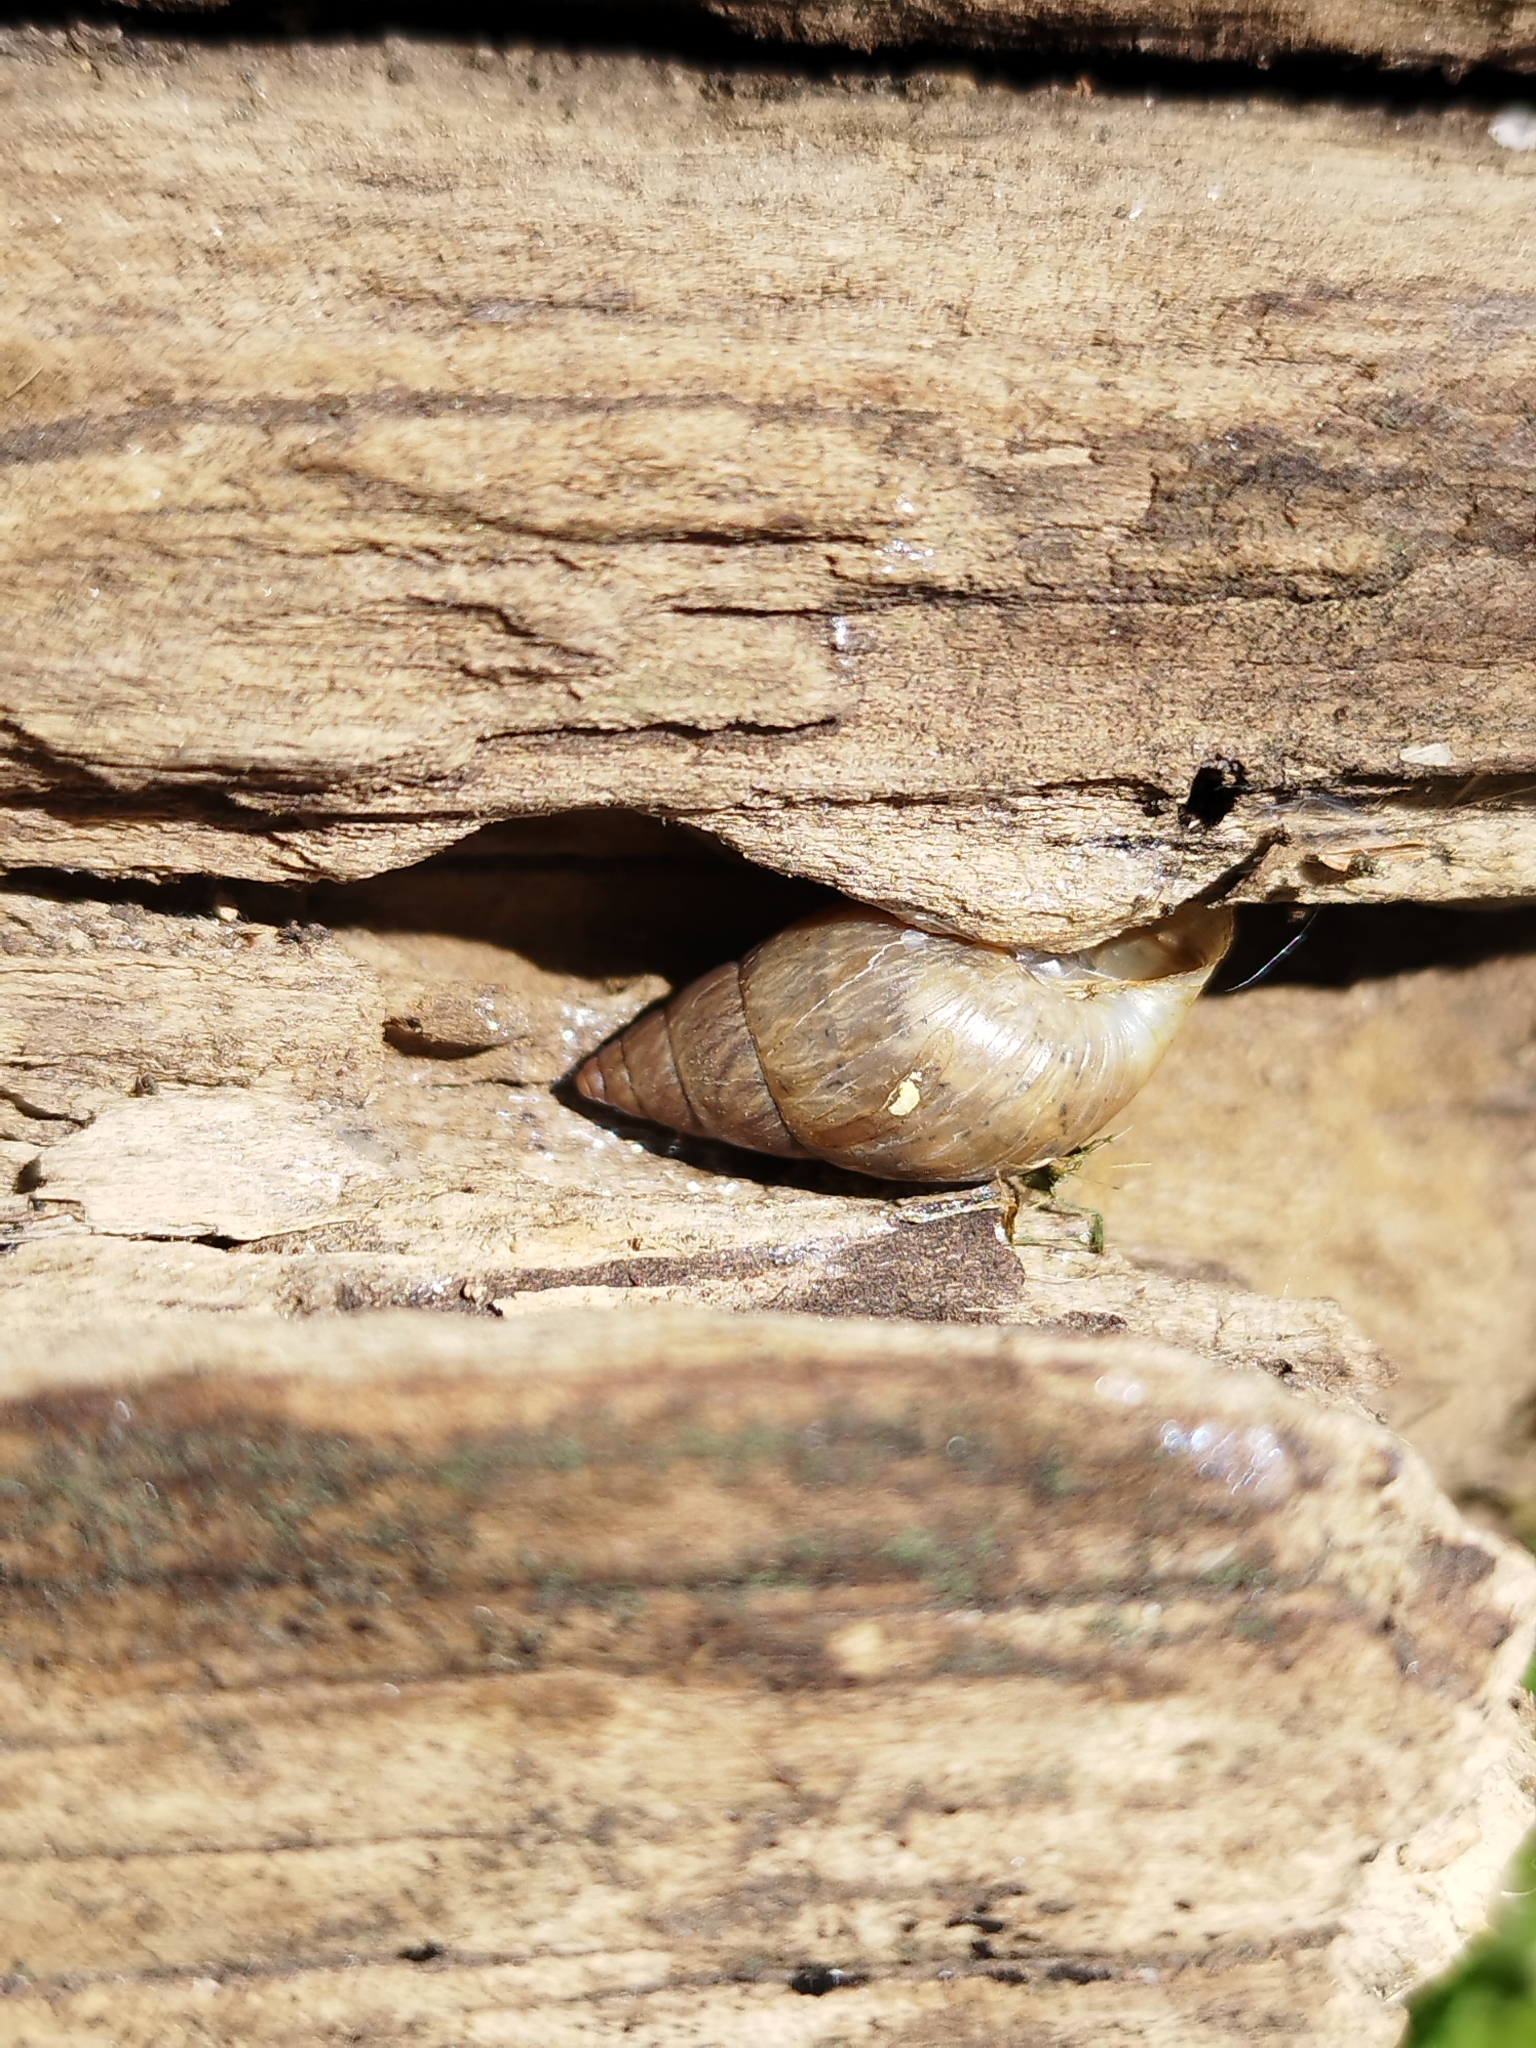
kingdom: Animalia
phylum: Mollusca
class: Gastropoda
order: Stylommatophora
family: Bulimulidae
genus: Bulimulus
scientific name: Bulimulus bonariensis
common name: Snail
